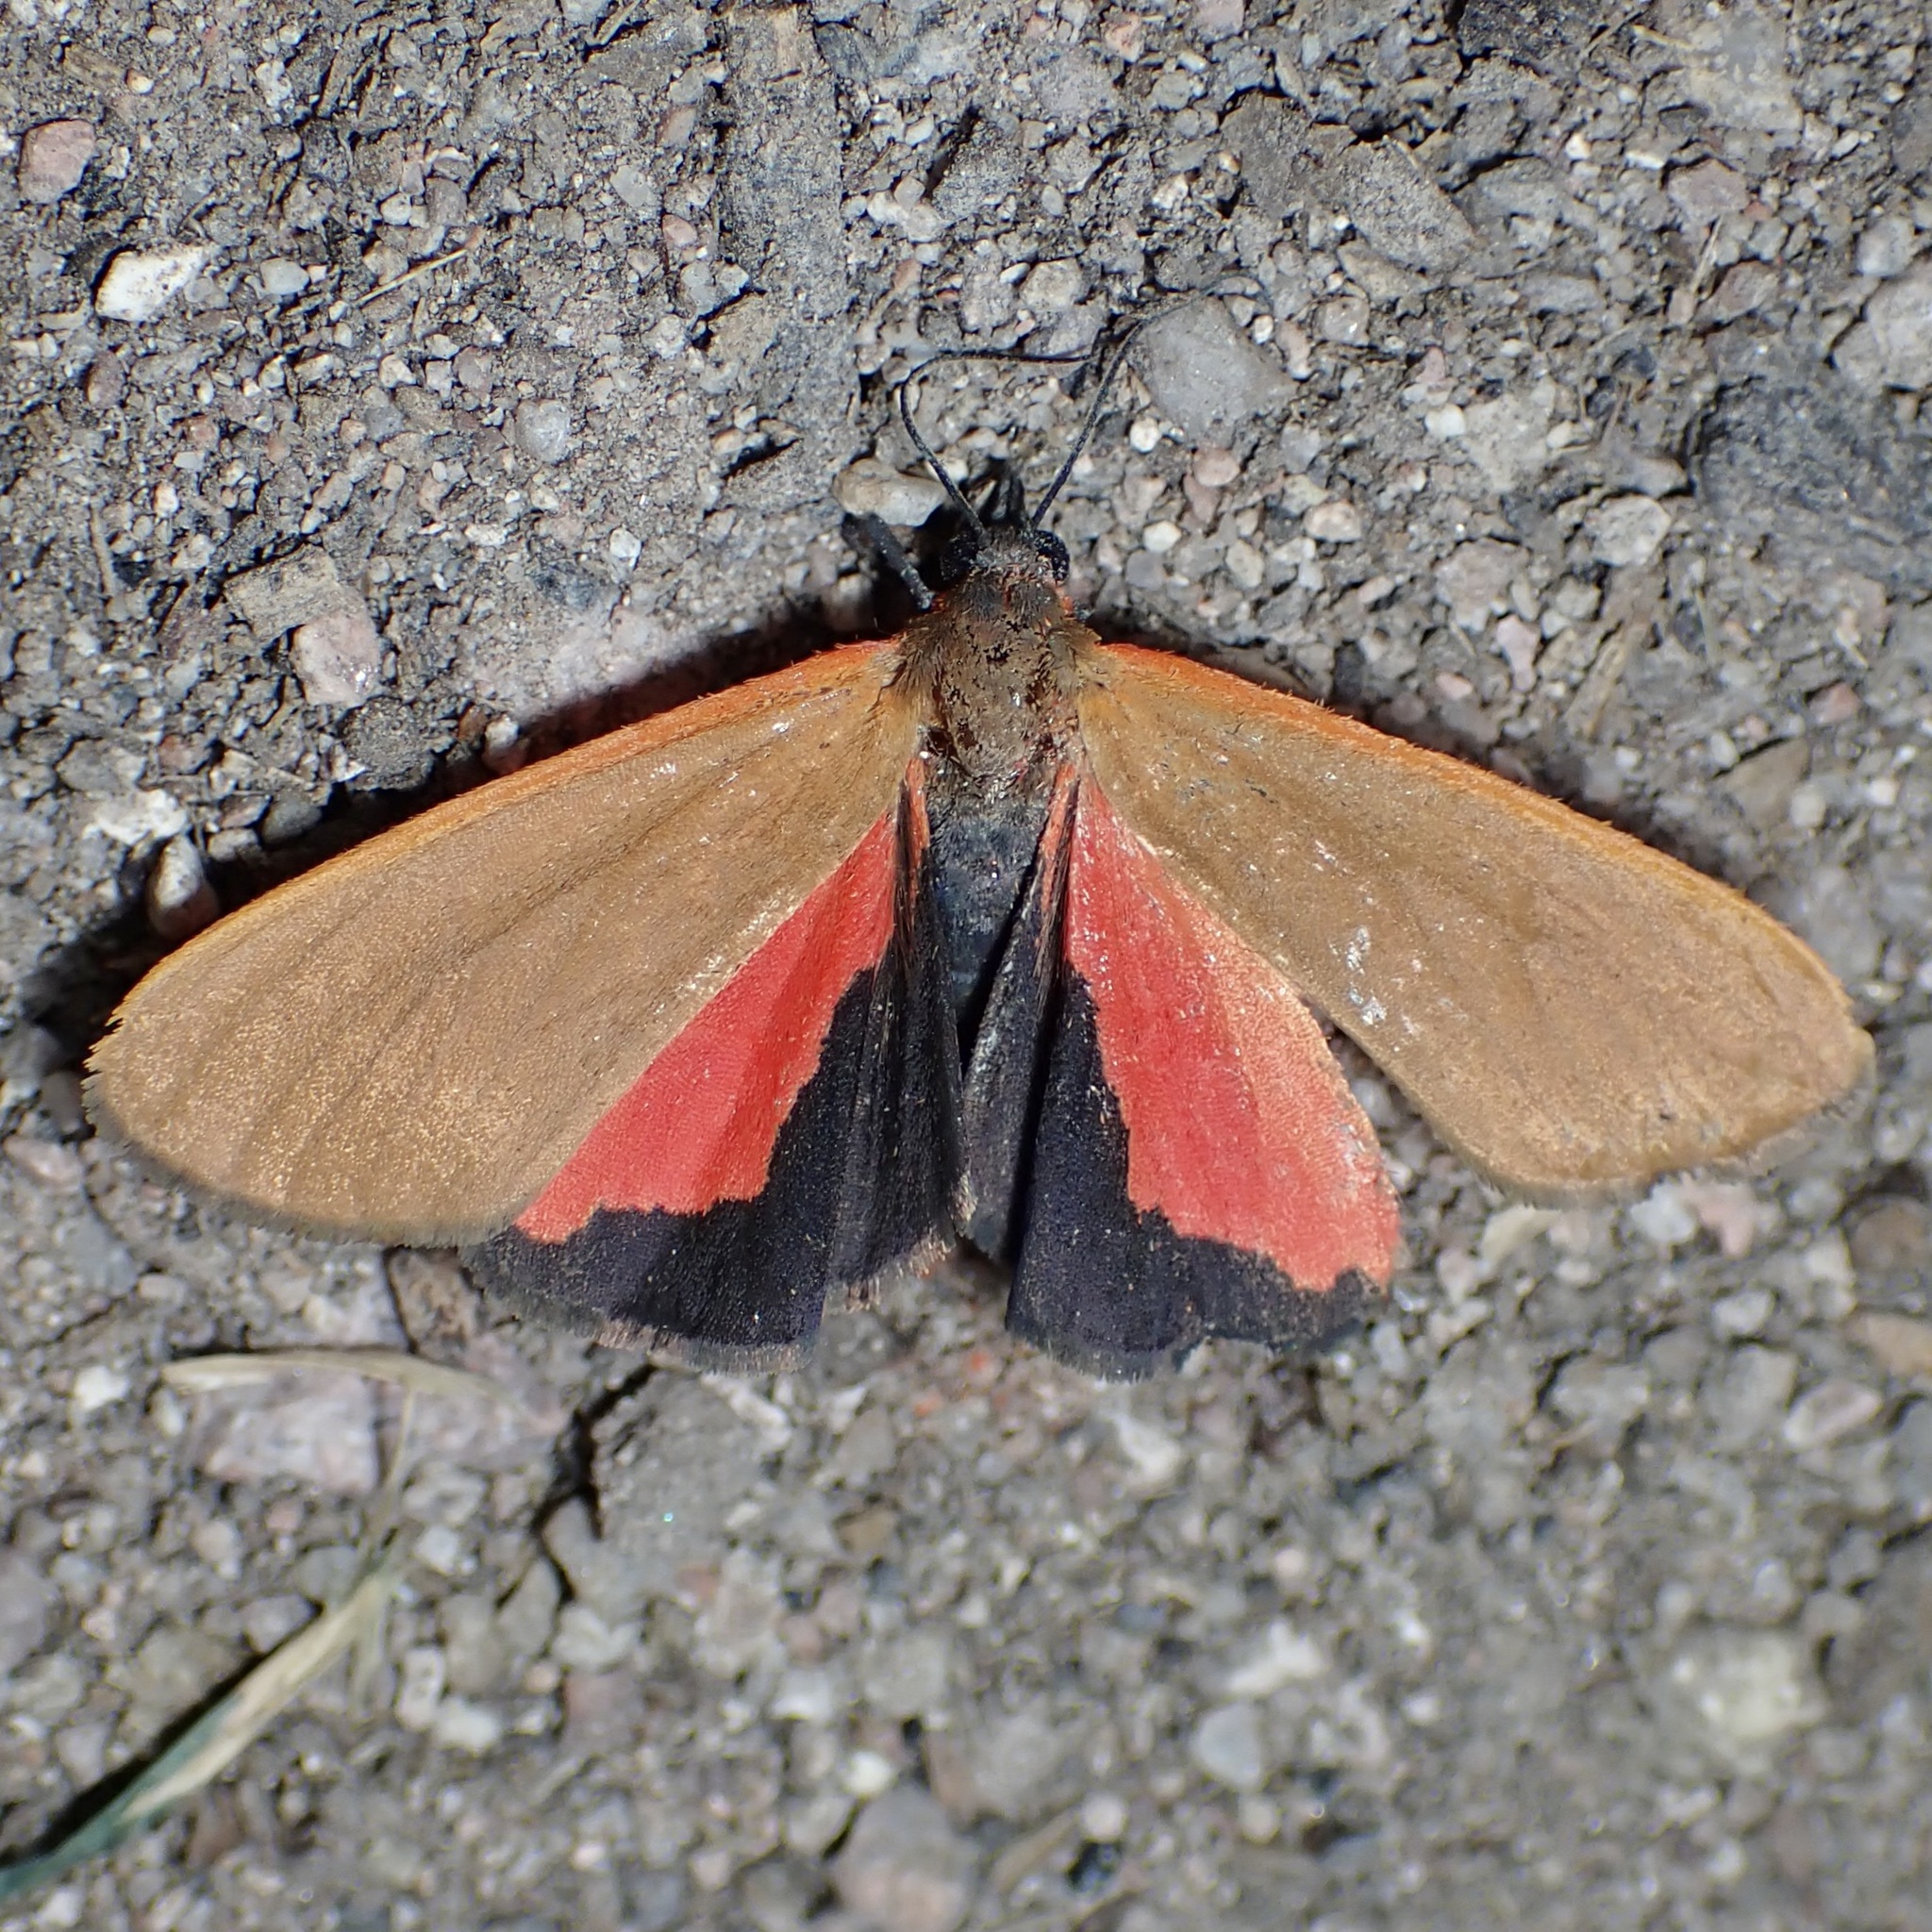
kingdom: Animalia
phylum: Arthropoda
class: Insecta
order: Lepidoptera
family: Erebidae
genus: Virbia
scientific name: Virbia ostenta
